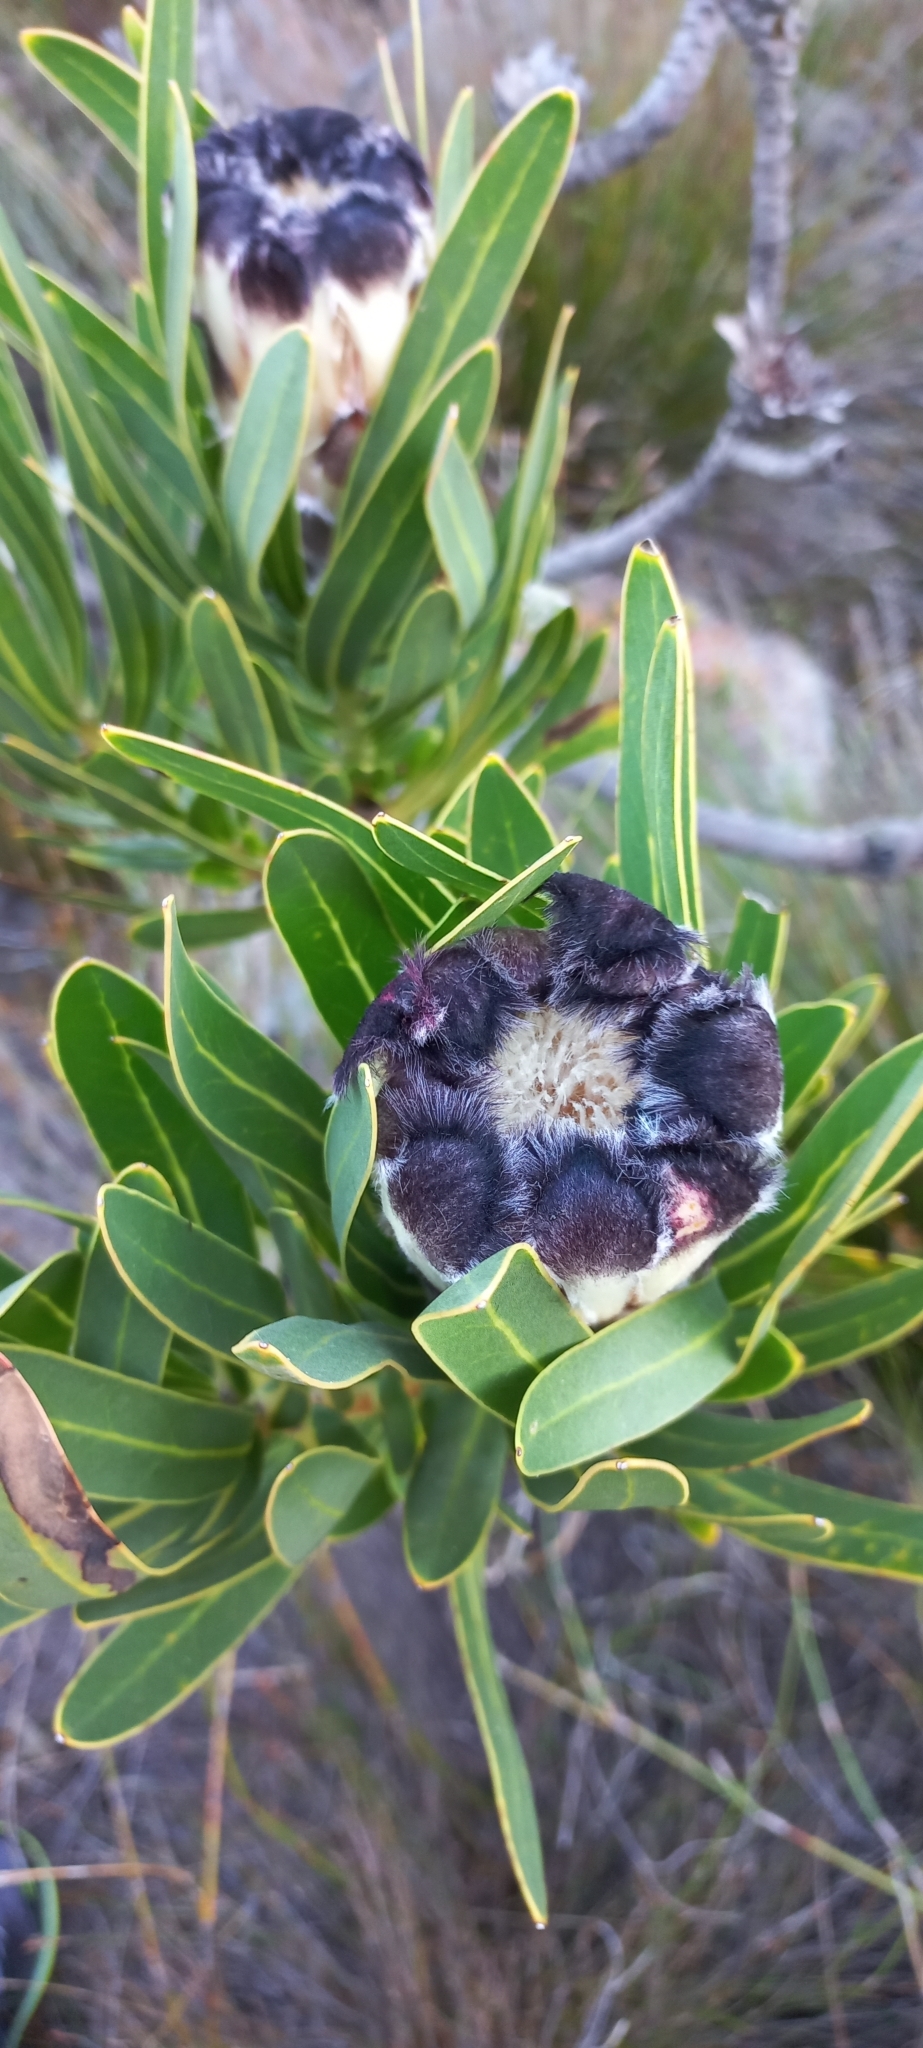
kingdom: Plantae
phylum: Tracheophyta
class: Magnoliopsida
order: Proteales
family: Proteaceae
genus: Protea
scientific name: Protea lepidocarpodendron
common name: Black-bearded protea
